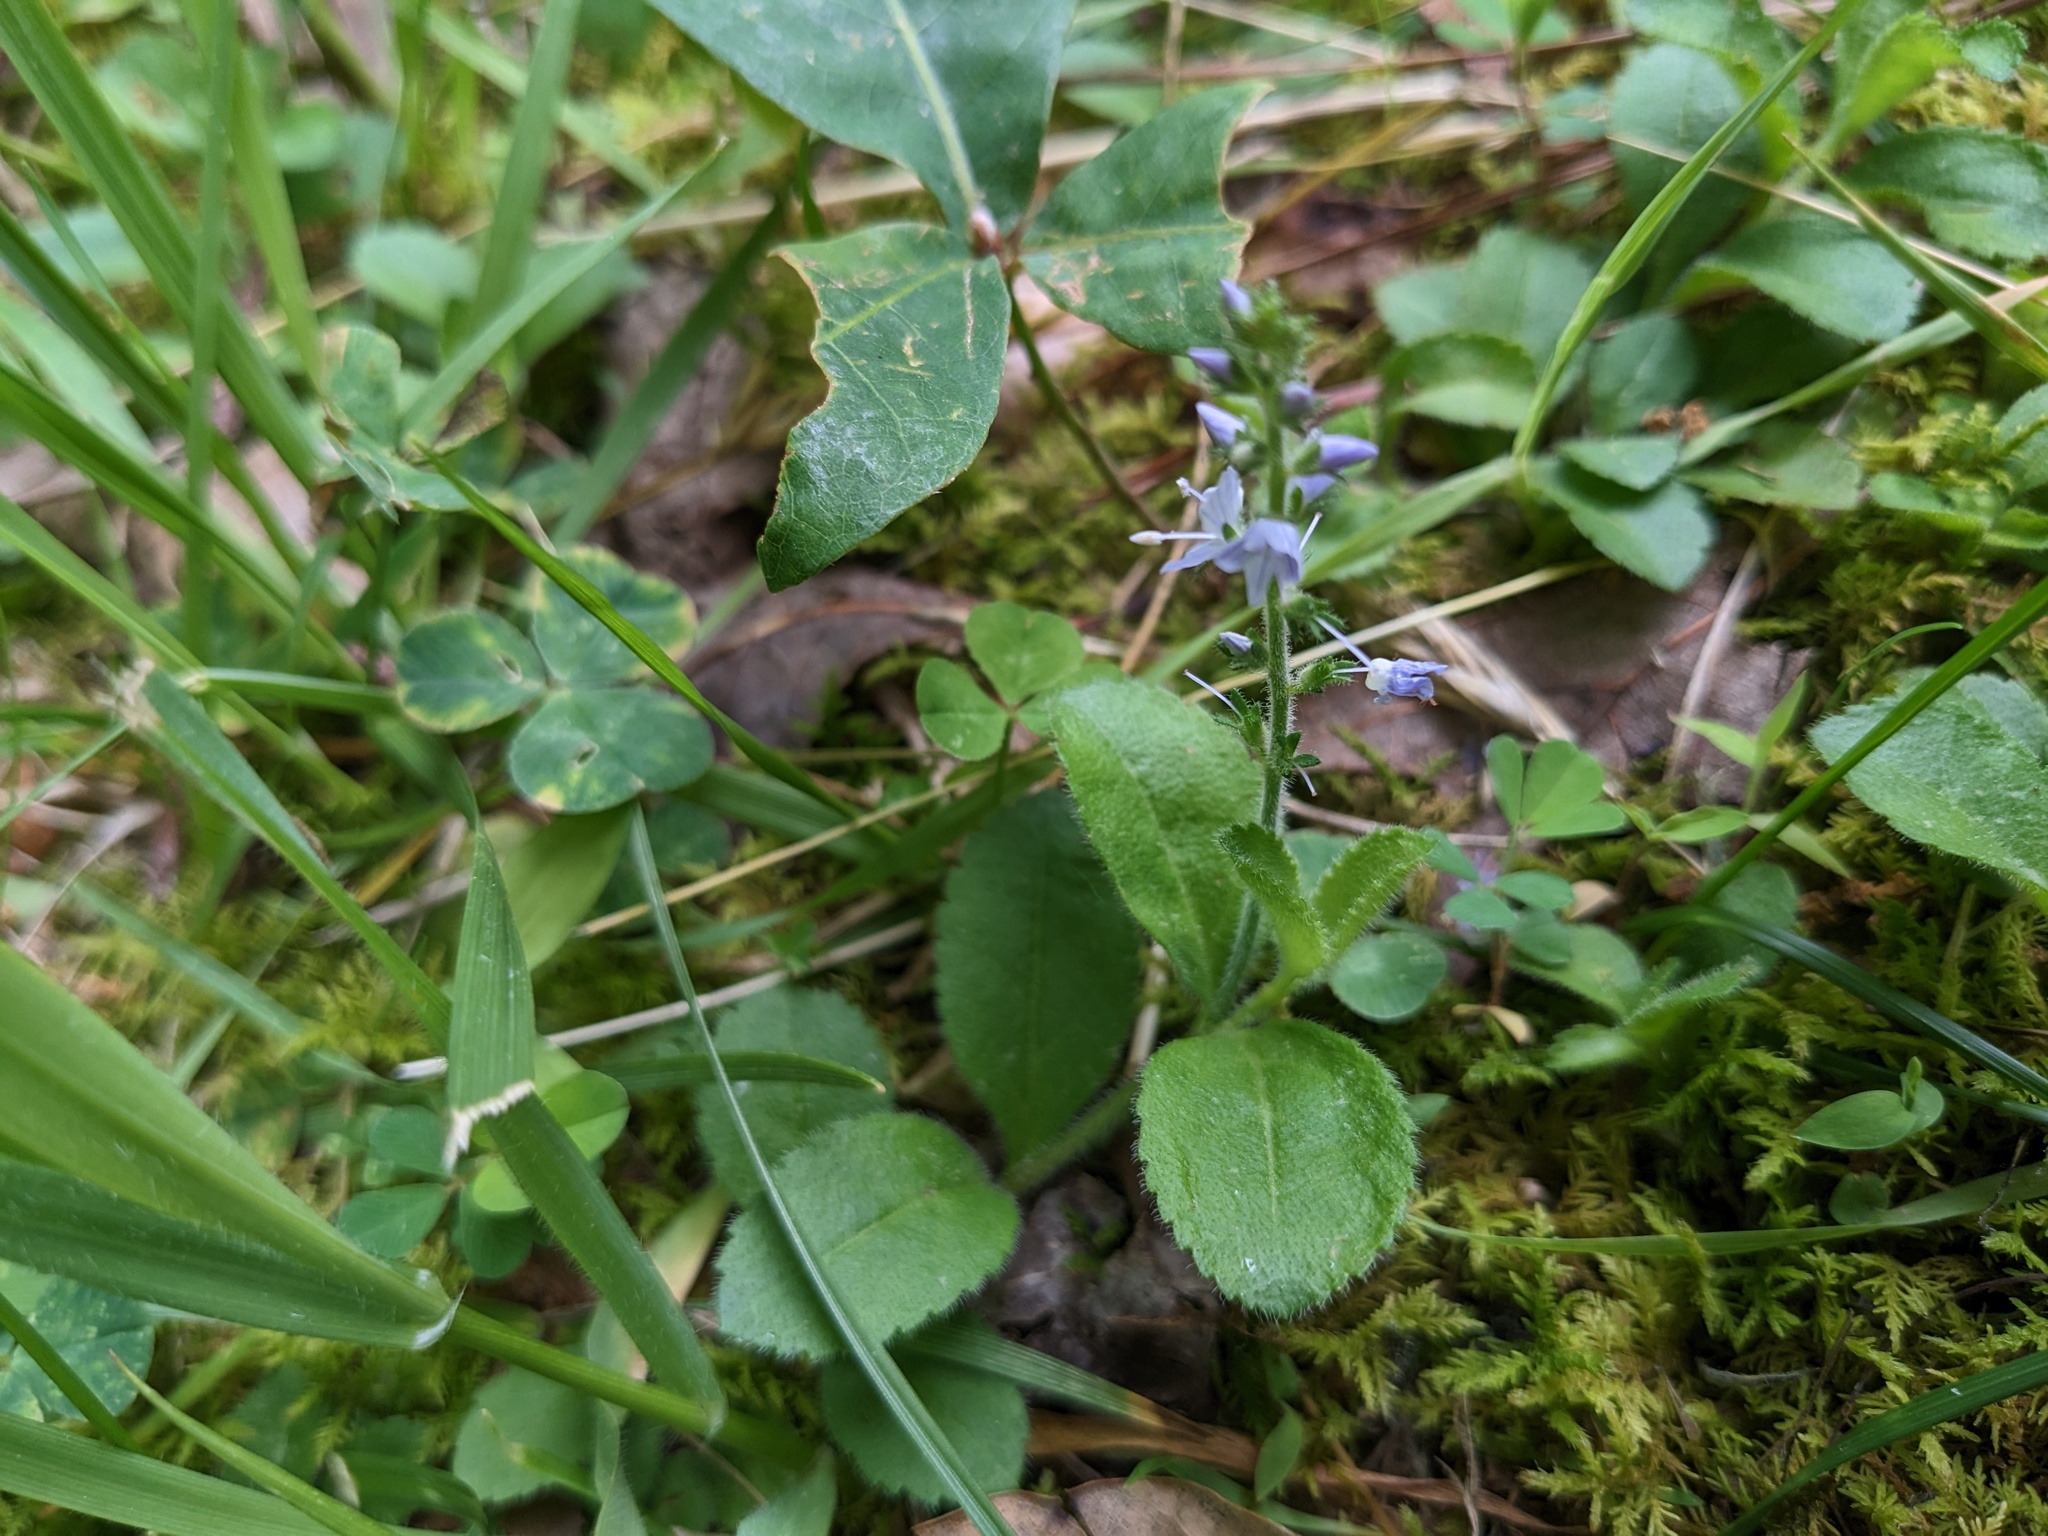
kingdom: Plantae
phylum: Tracheophyta
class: Magnoliopsida
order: Lamiales
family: Plantaginaceae
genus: Veronica
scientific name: Veronica officinalis
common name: Common speedwell
